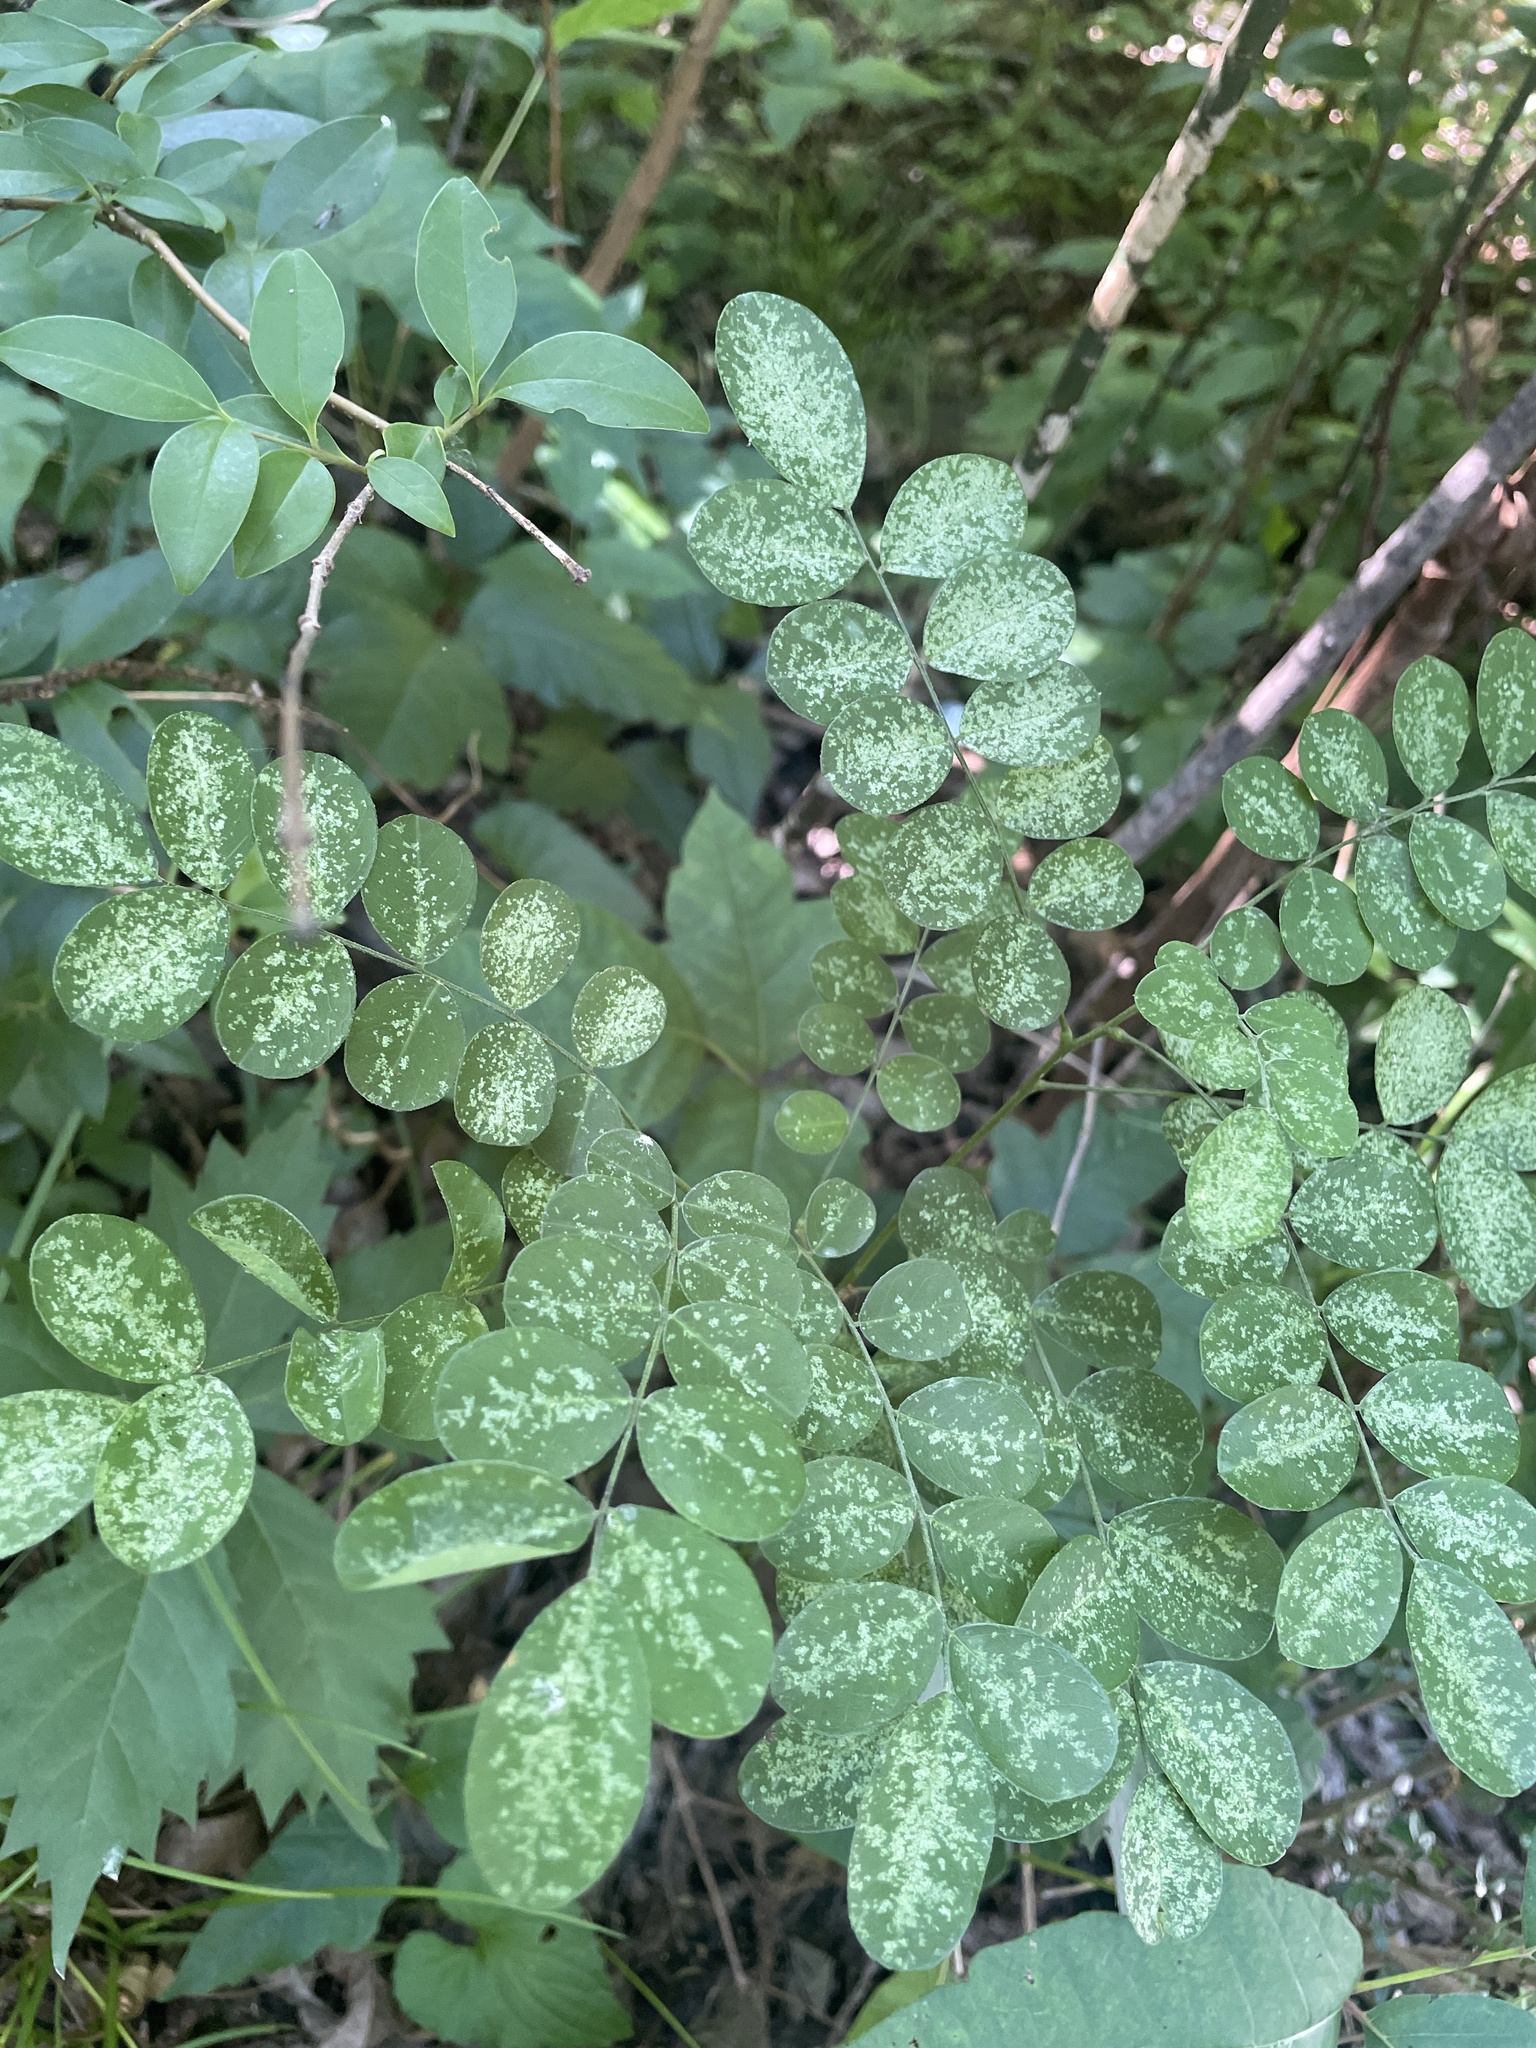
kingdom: Plantae
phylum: Tracheophyta
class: Magnoliopsida
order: Dipsacales
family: Caprifoliaceae
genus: Symphoricarpos
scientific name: Symphoricarpos orbiculatus
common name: Coralberry
